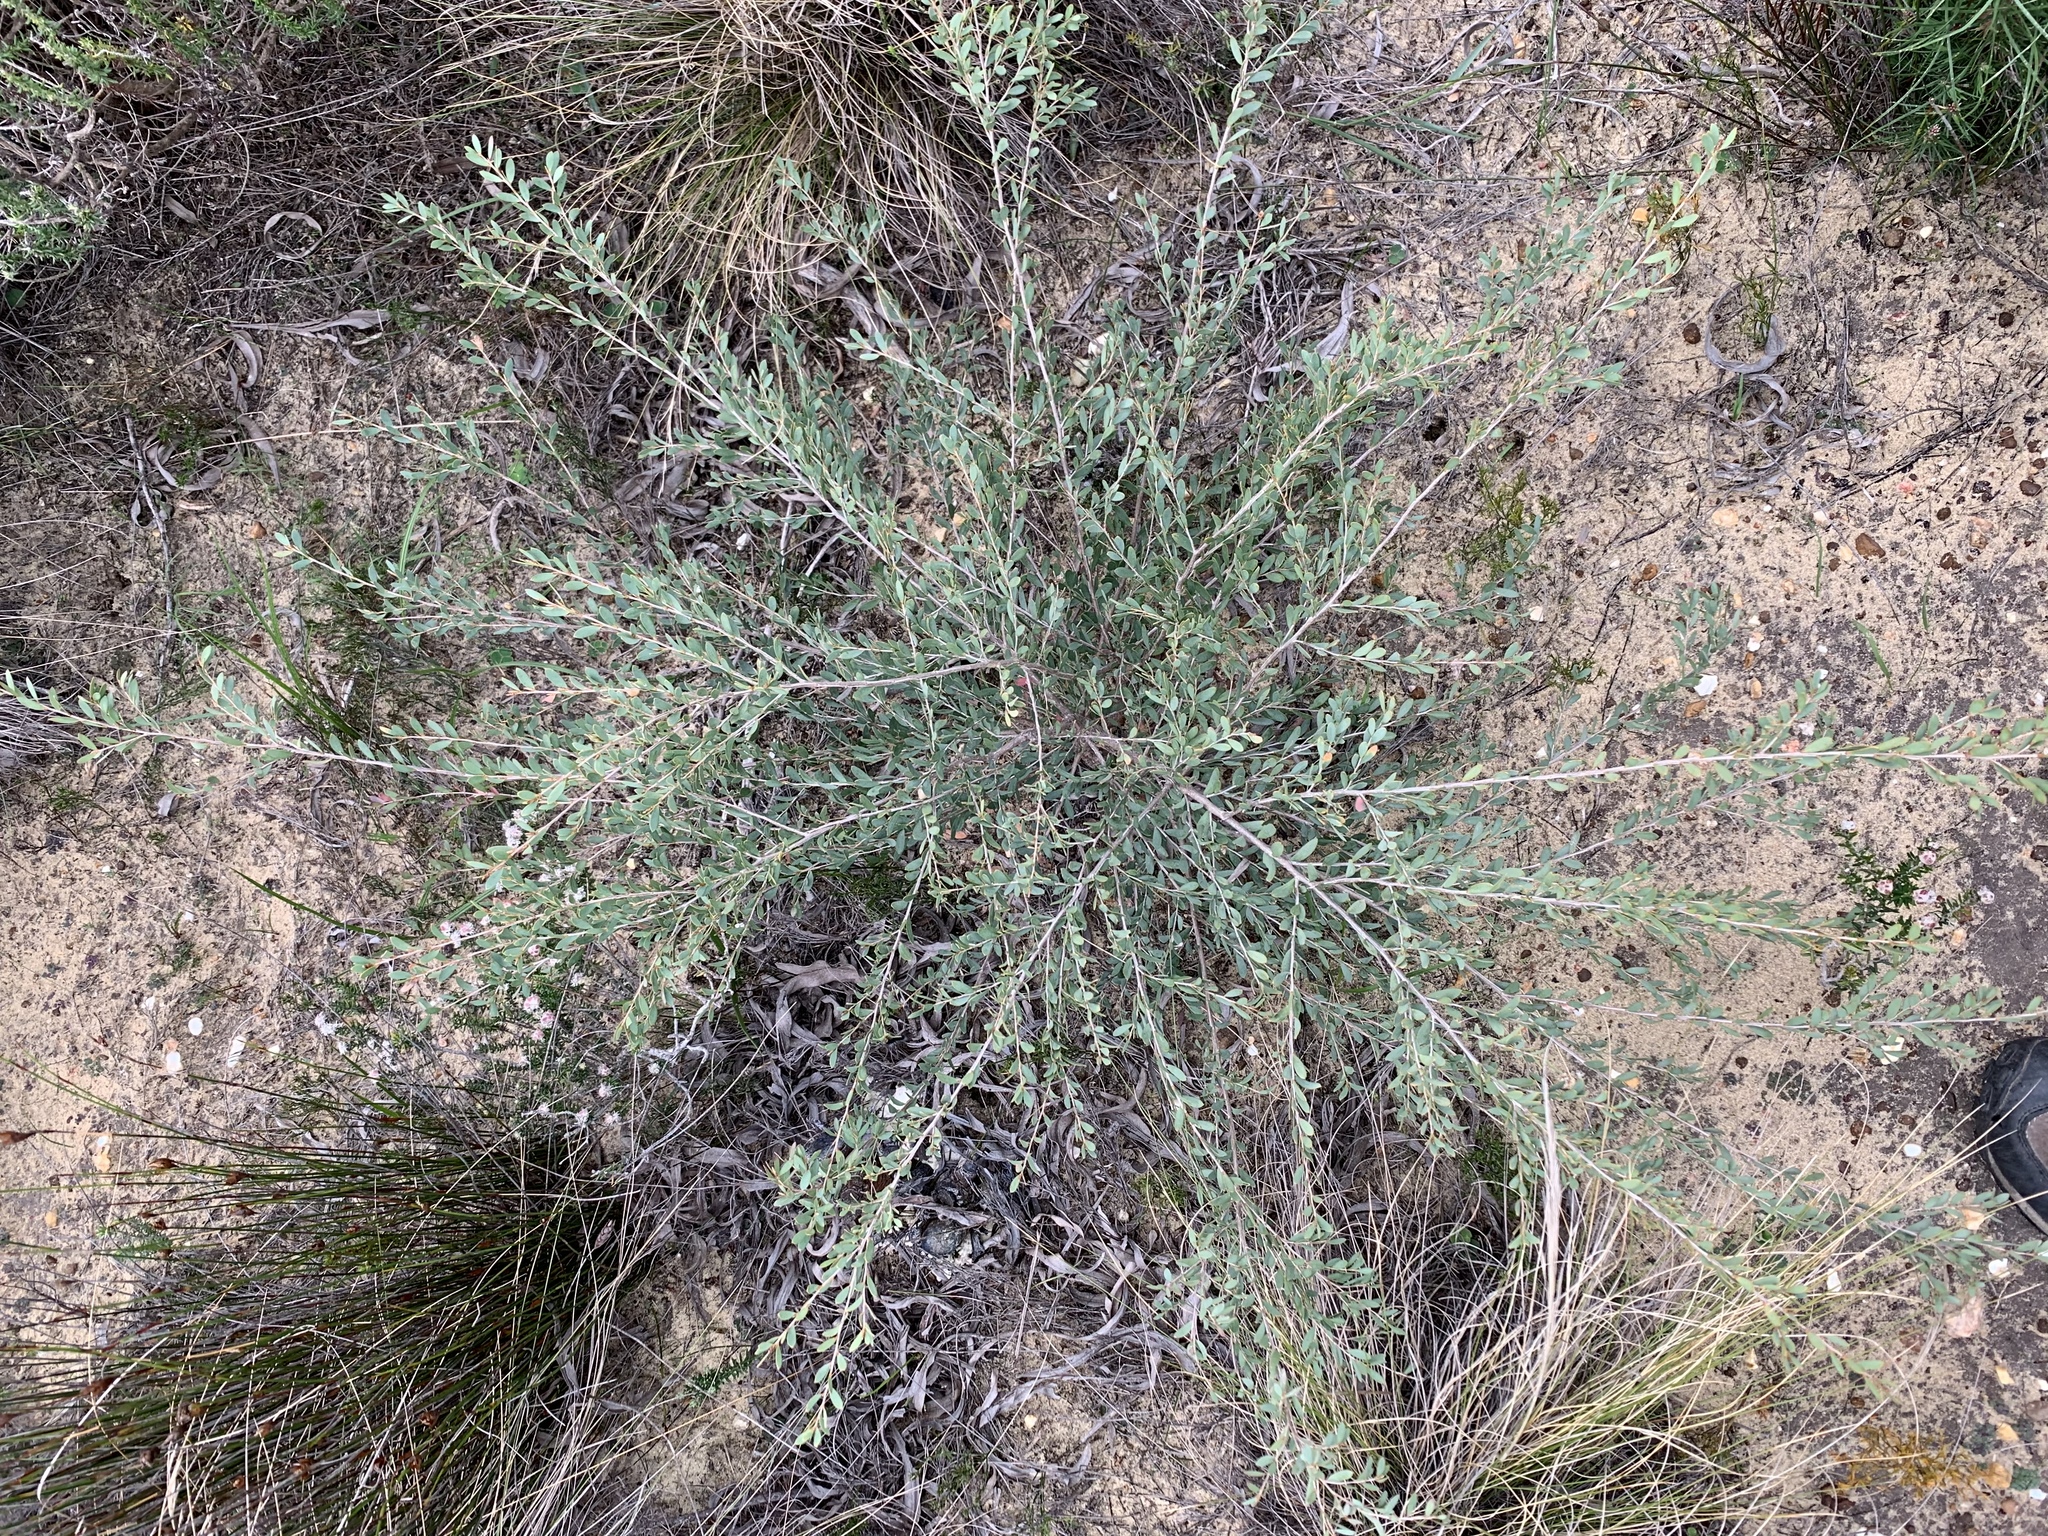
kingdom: Plantae
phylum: Tracheophyta
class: Magnoliopsida
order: Myrtales
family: Myrtaceae
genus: Leptospermum
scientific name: Leptospermum laevigatum
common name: Australian teatree
